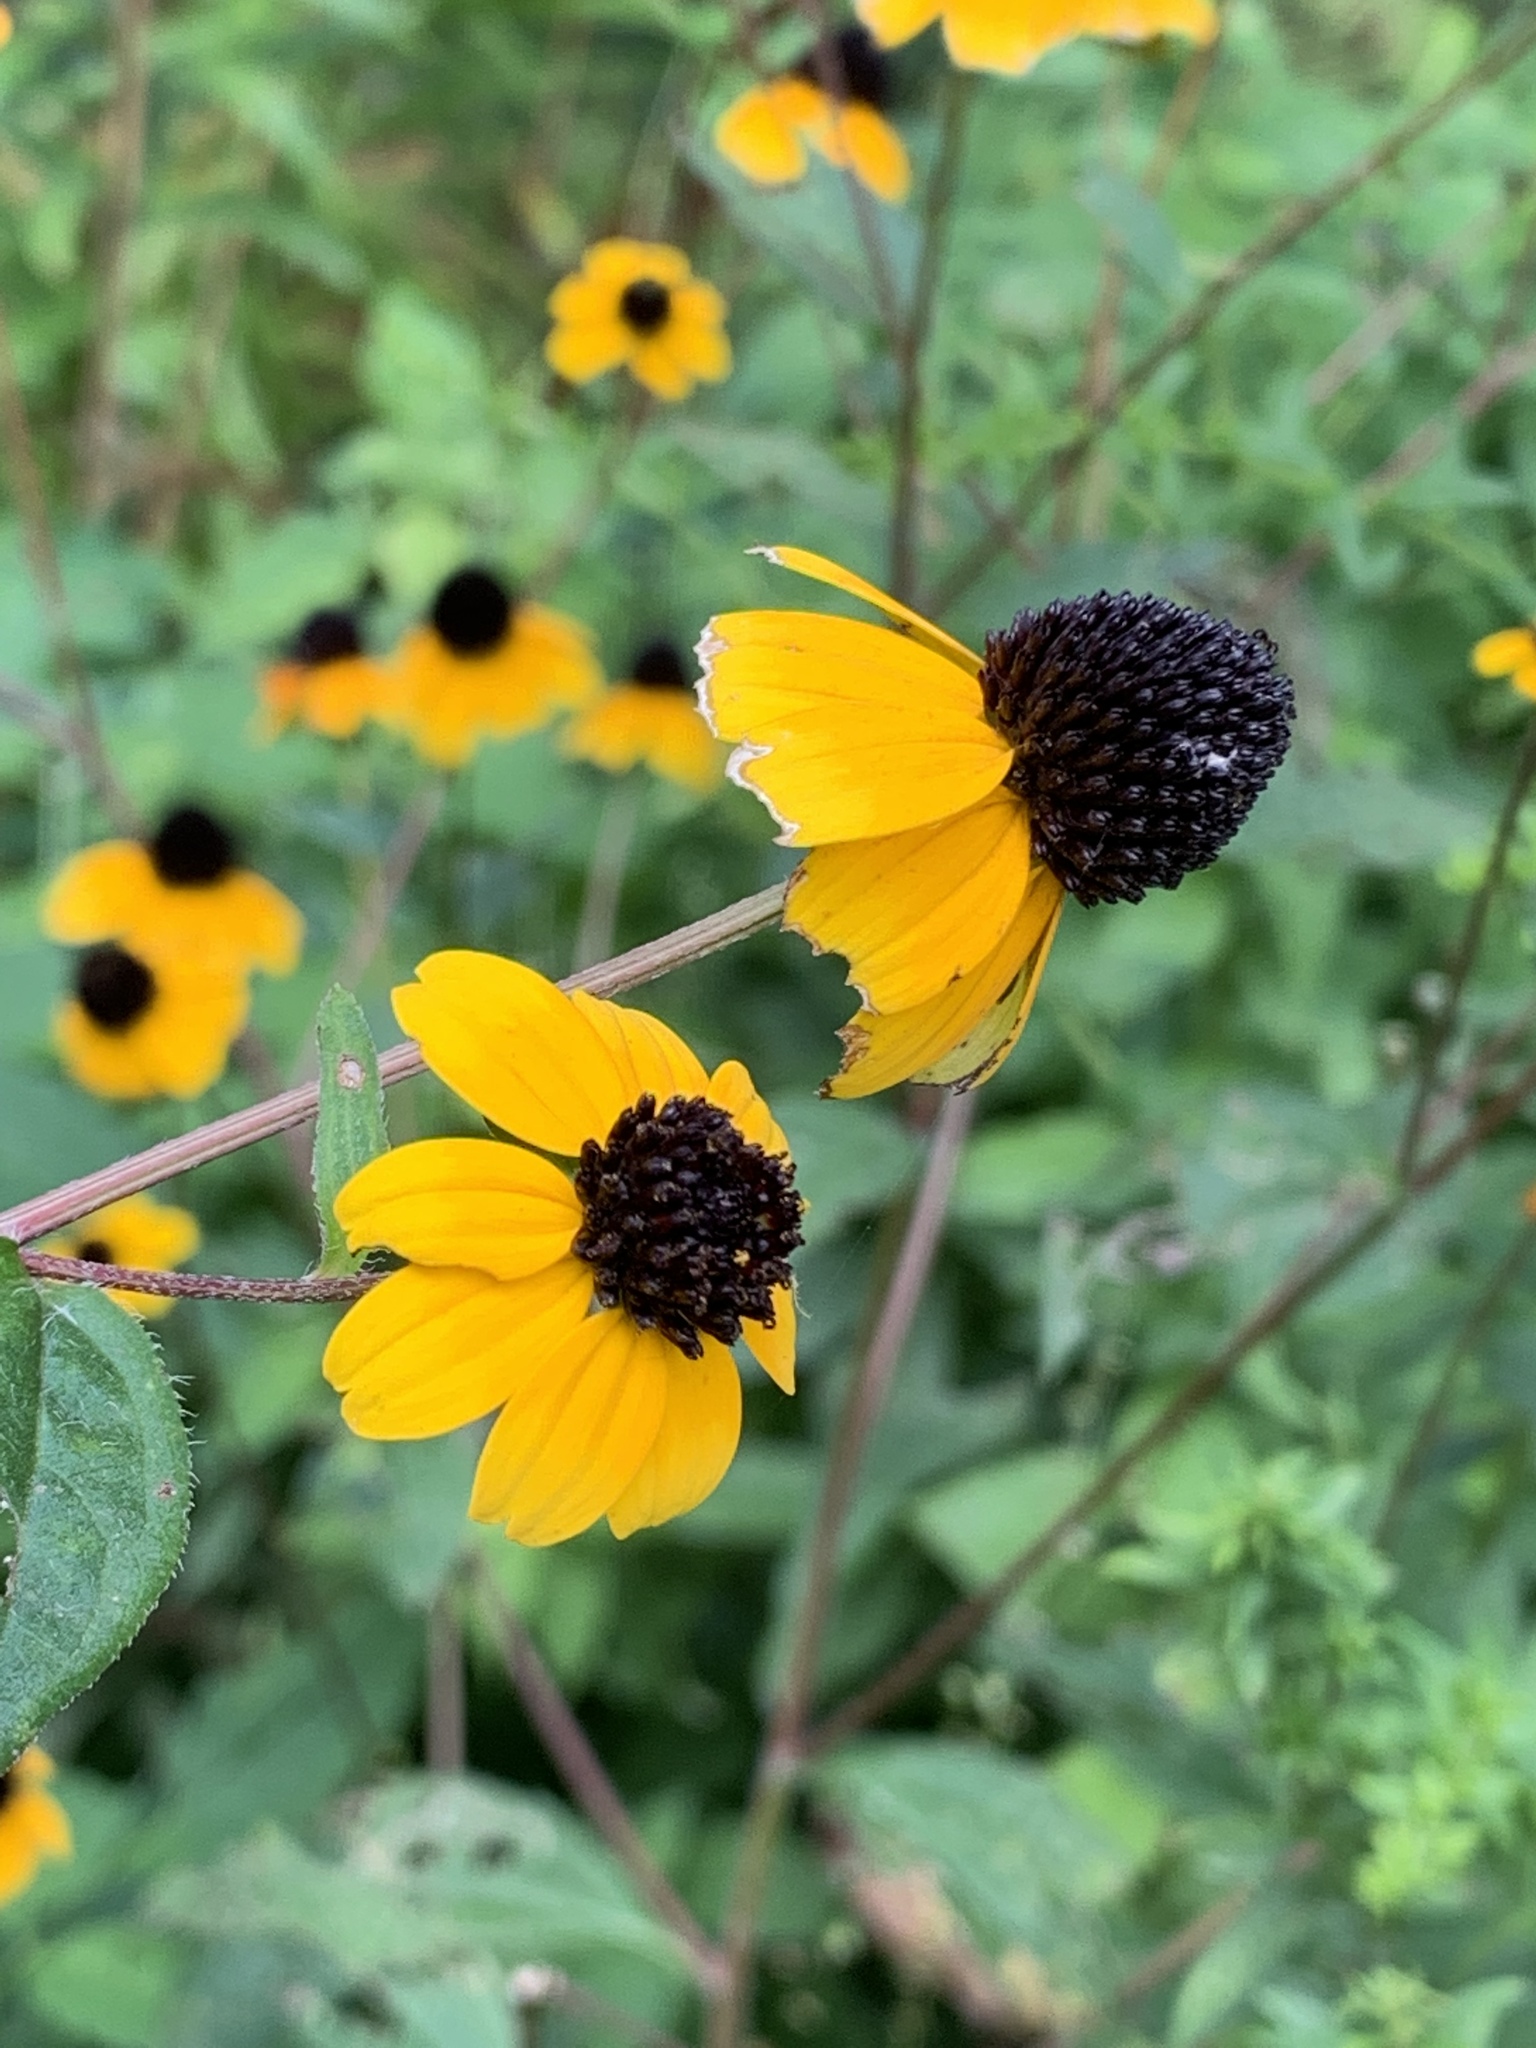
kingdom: Plantae
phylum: Tracheophyta
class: Magnoliopsida
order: Asterales
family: Asteraceae
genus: Rudbeckia
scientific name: Rudbeckia triloba
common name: Thin-leaved coneflower
